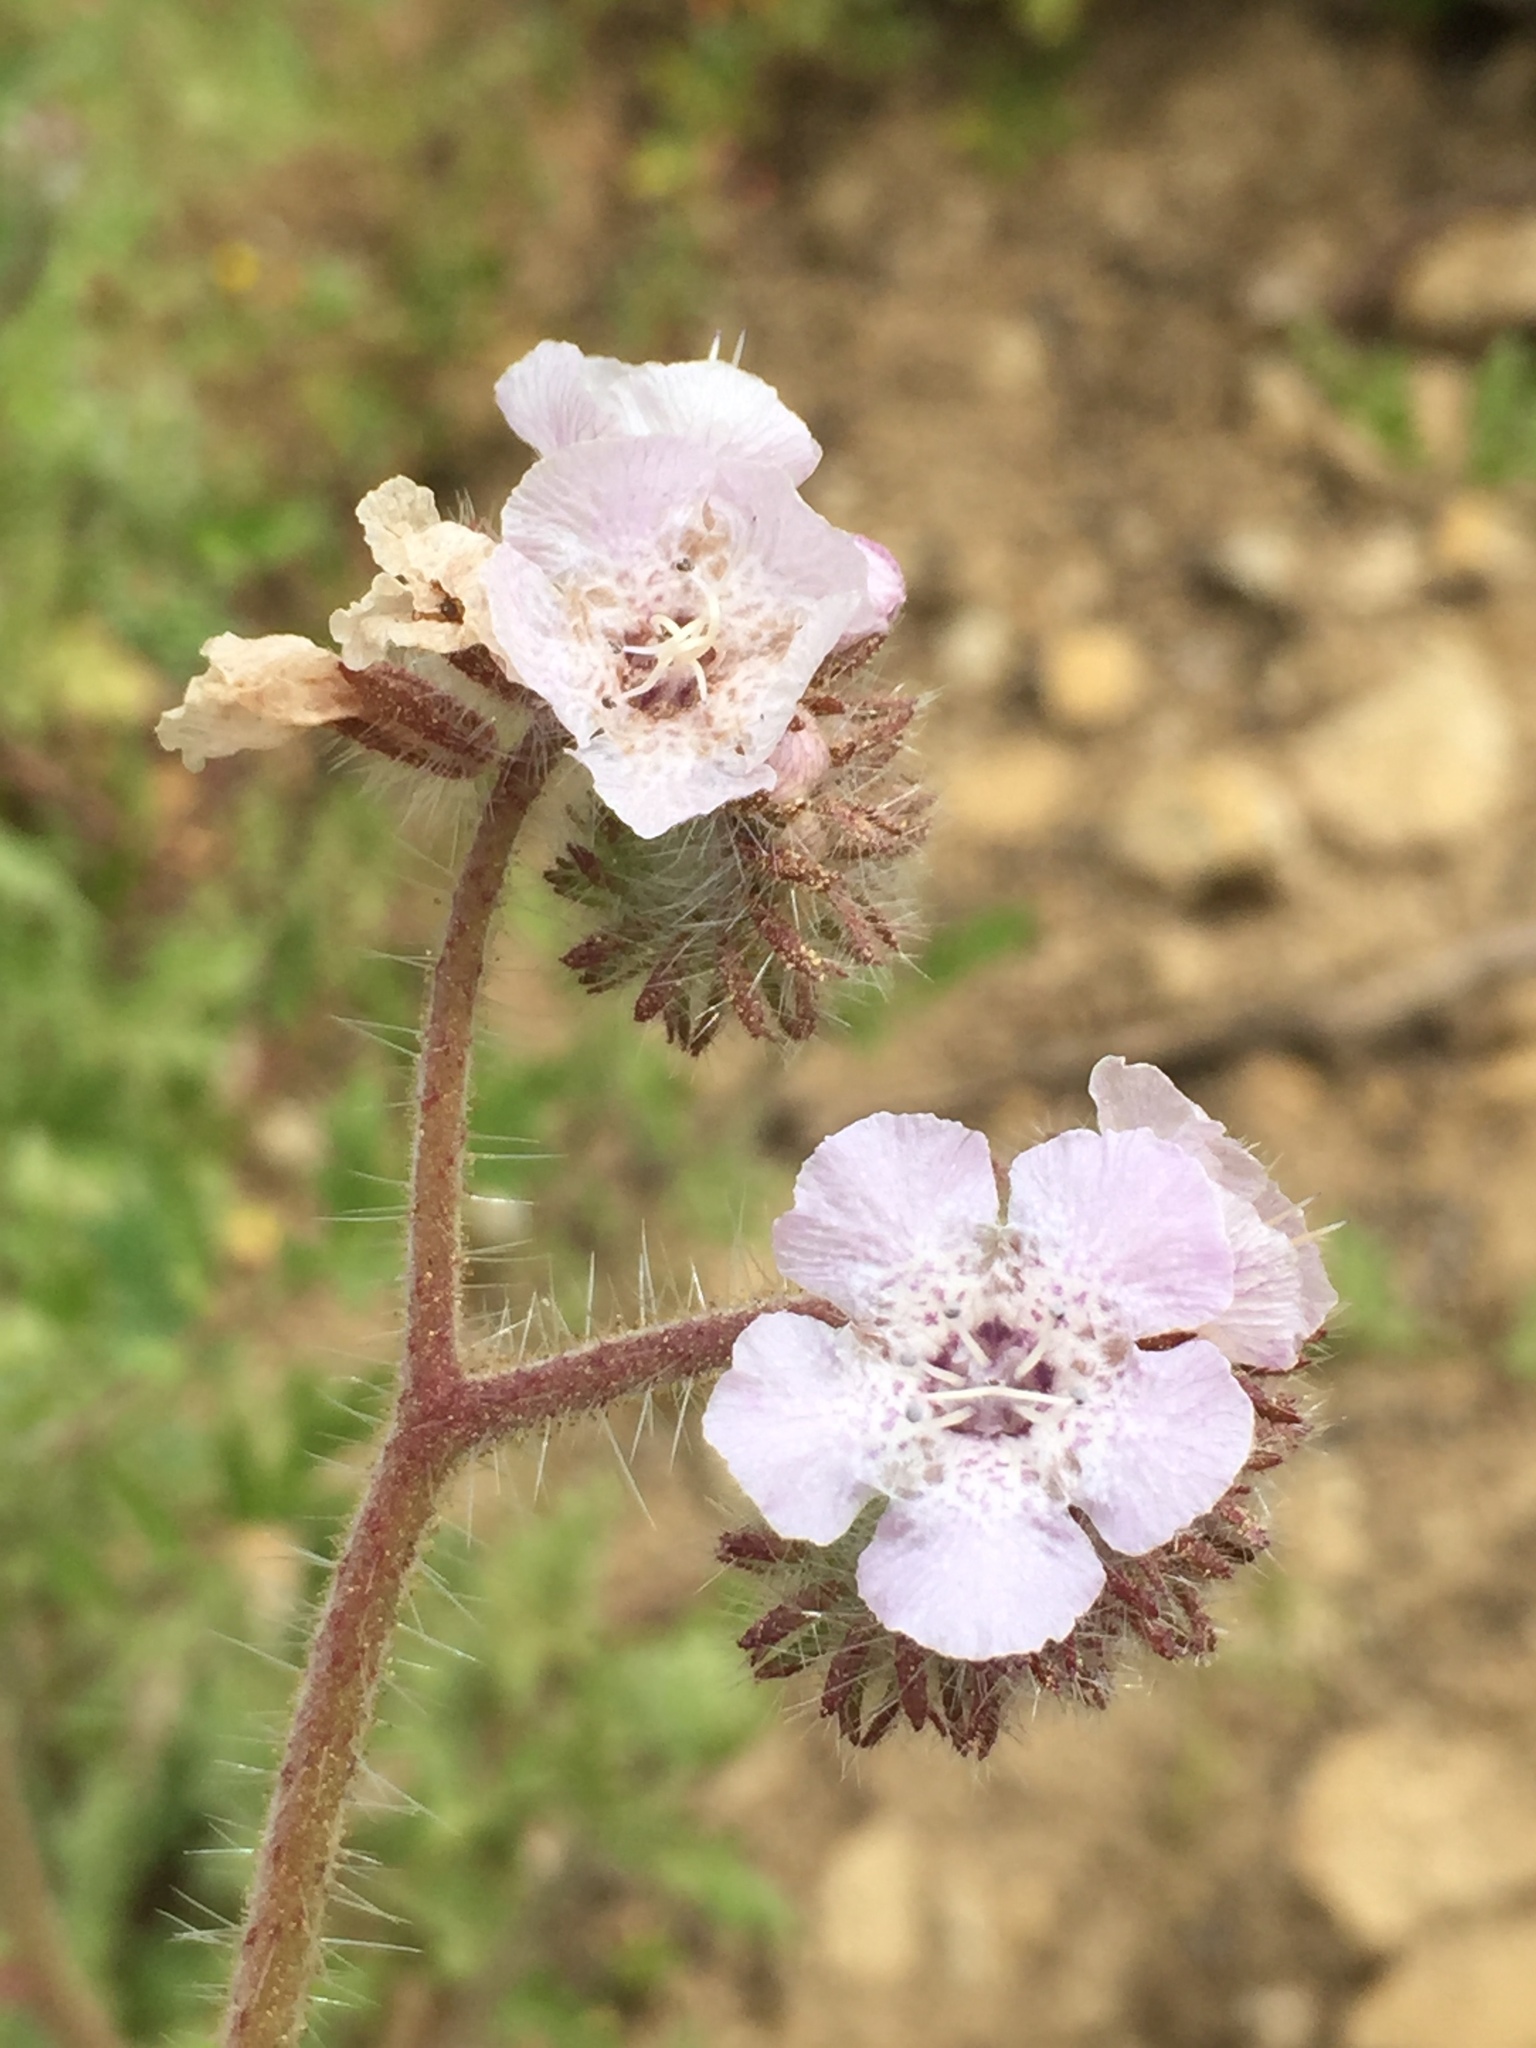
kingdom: Plantae
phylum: Tracheophyta
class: Magnoliopsida
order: Boraginales
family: Hydrophyllaceae
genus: Phacelia
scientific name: Phacelia cicutaria
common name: Caterpillar phacelia
